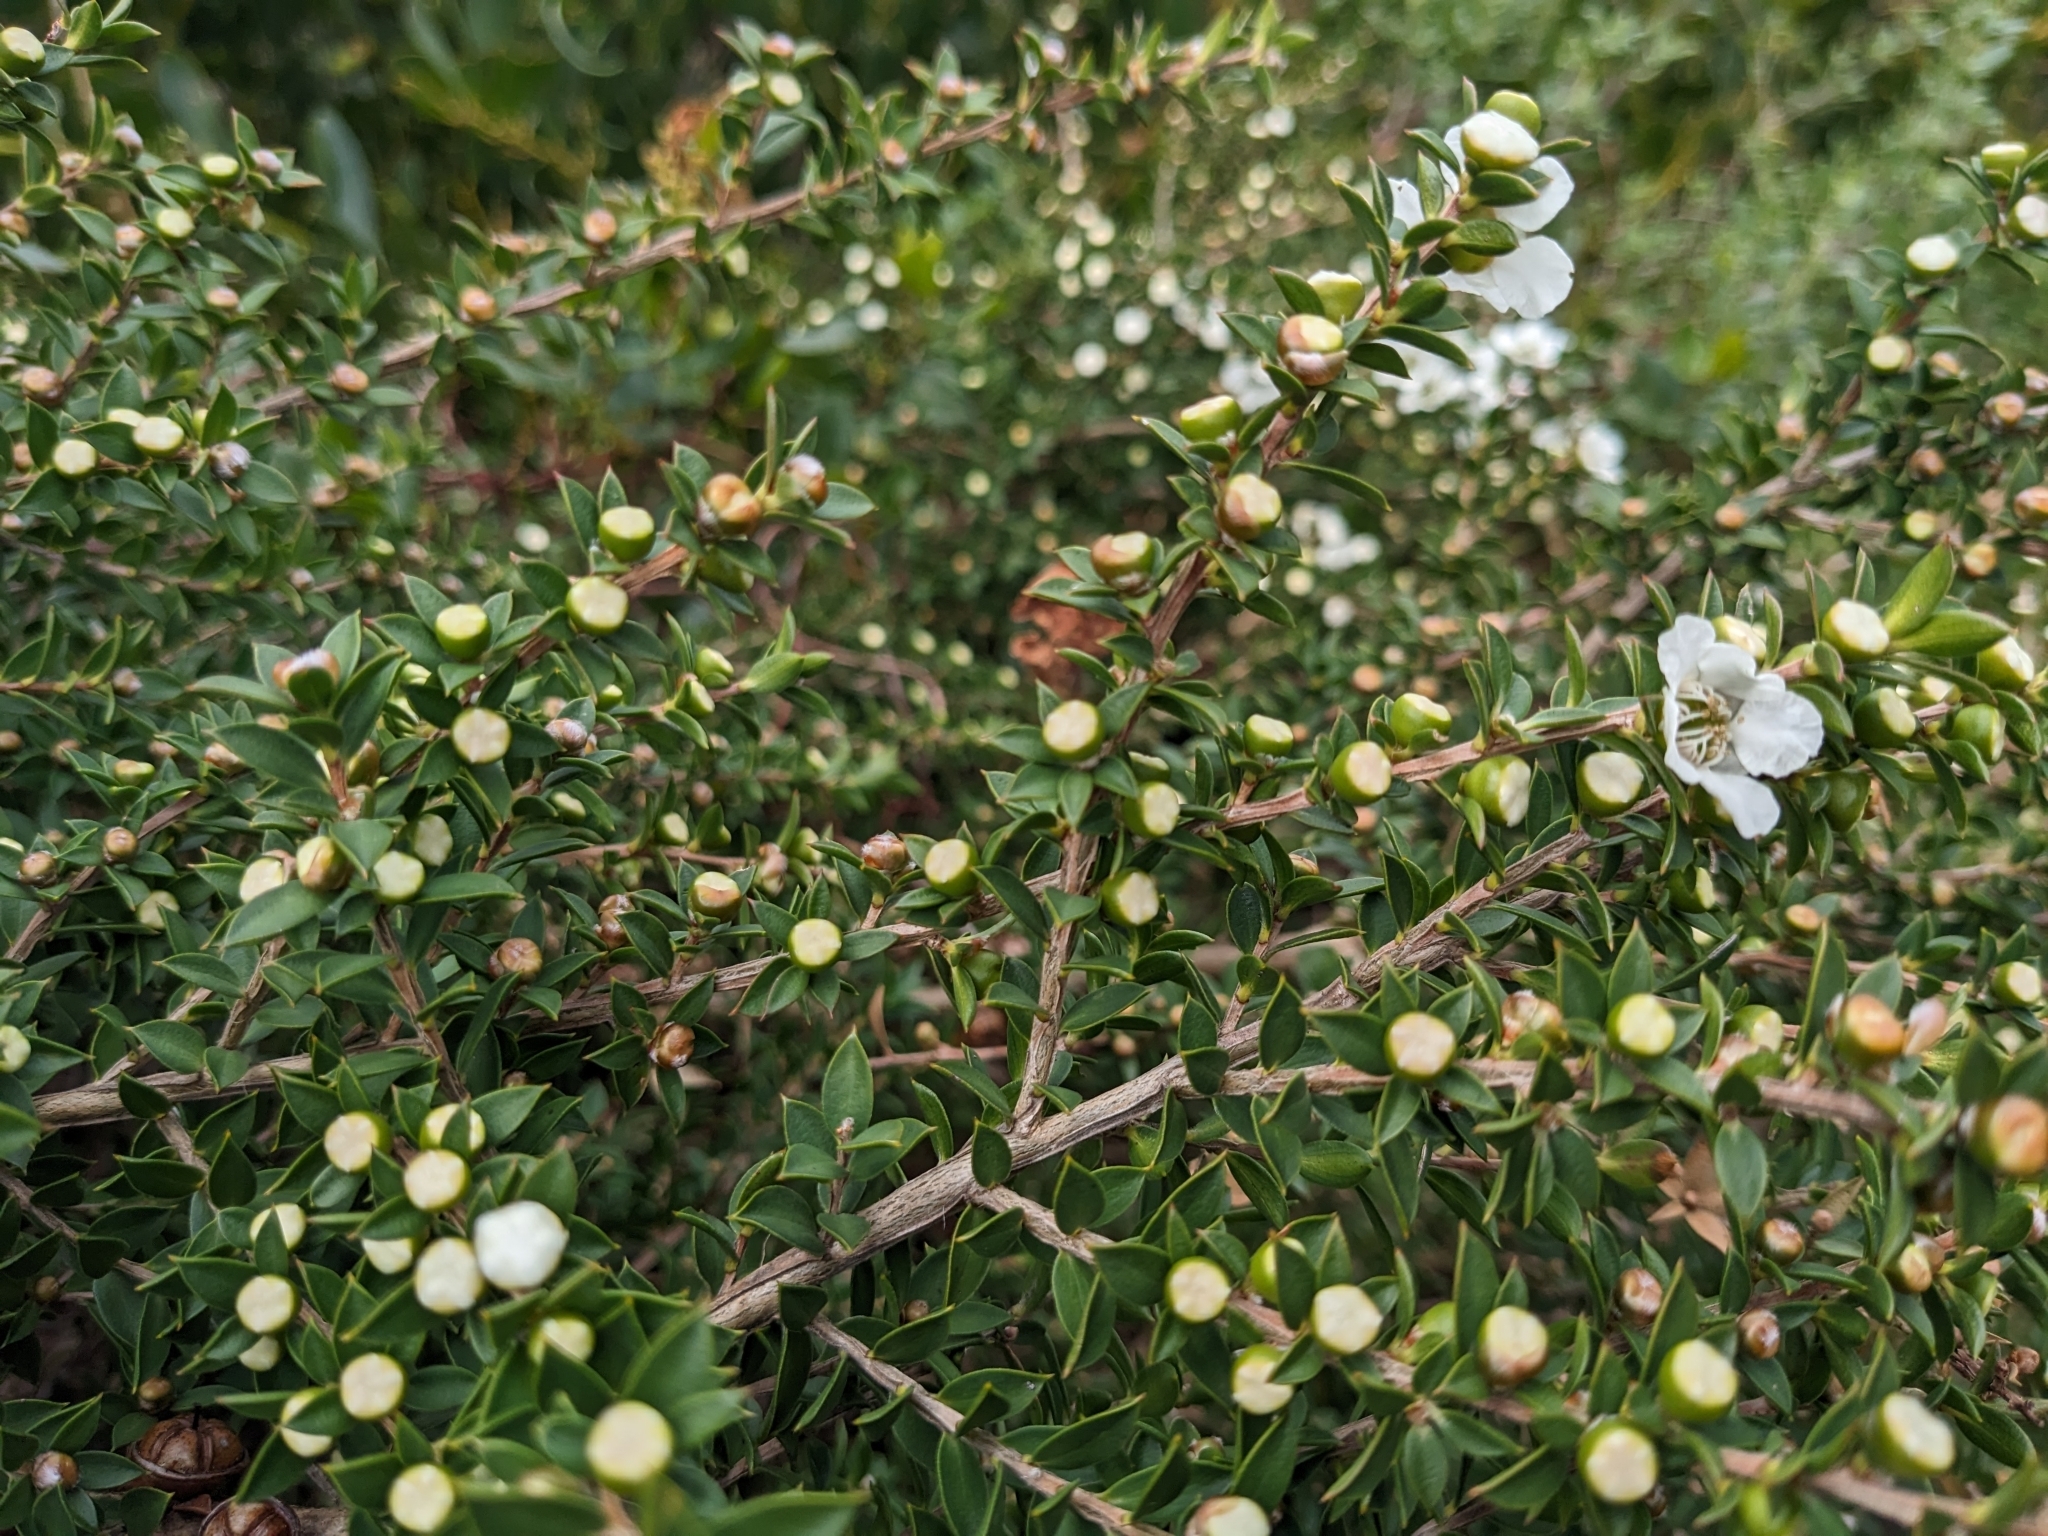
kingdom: Plantae
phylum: Tracheophyta
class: Magnoliopsida
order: Myrtales
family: Myrtaceae
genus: Leptospermum
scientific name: Leptospermum scoparium
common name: Broom tea-tree
